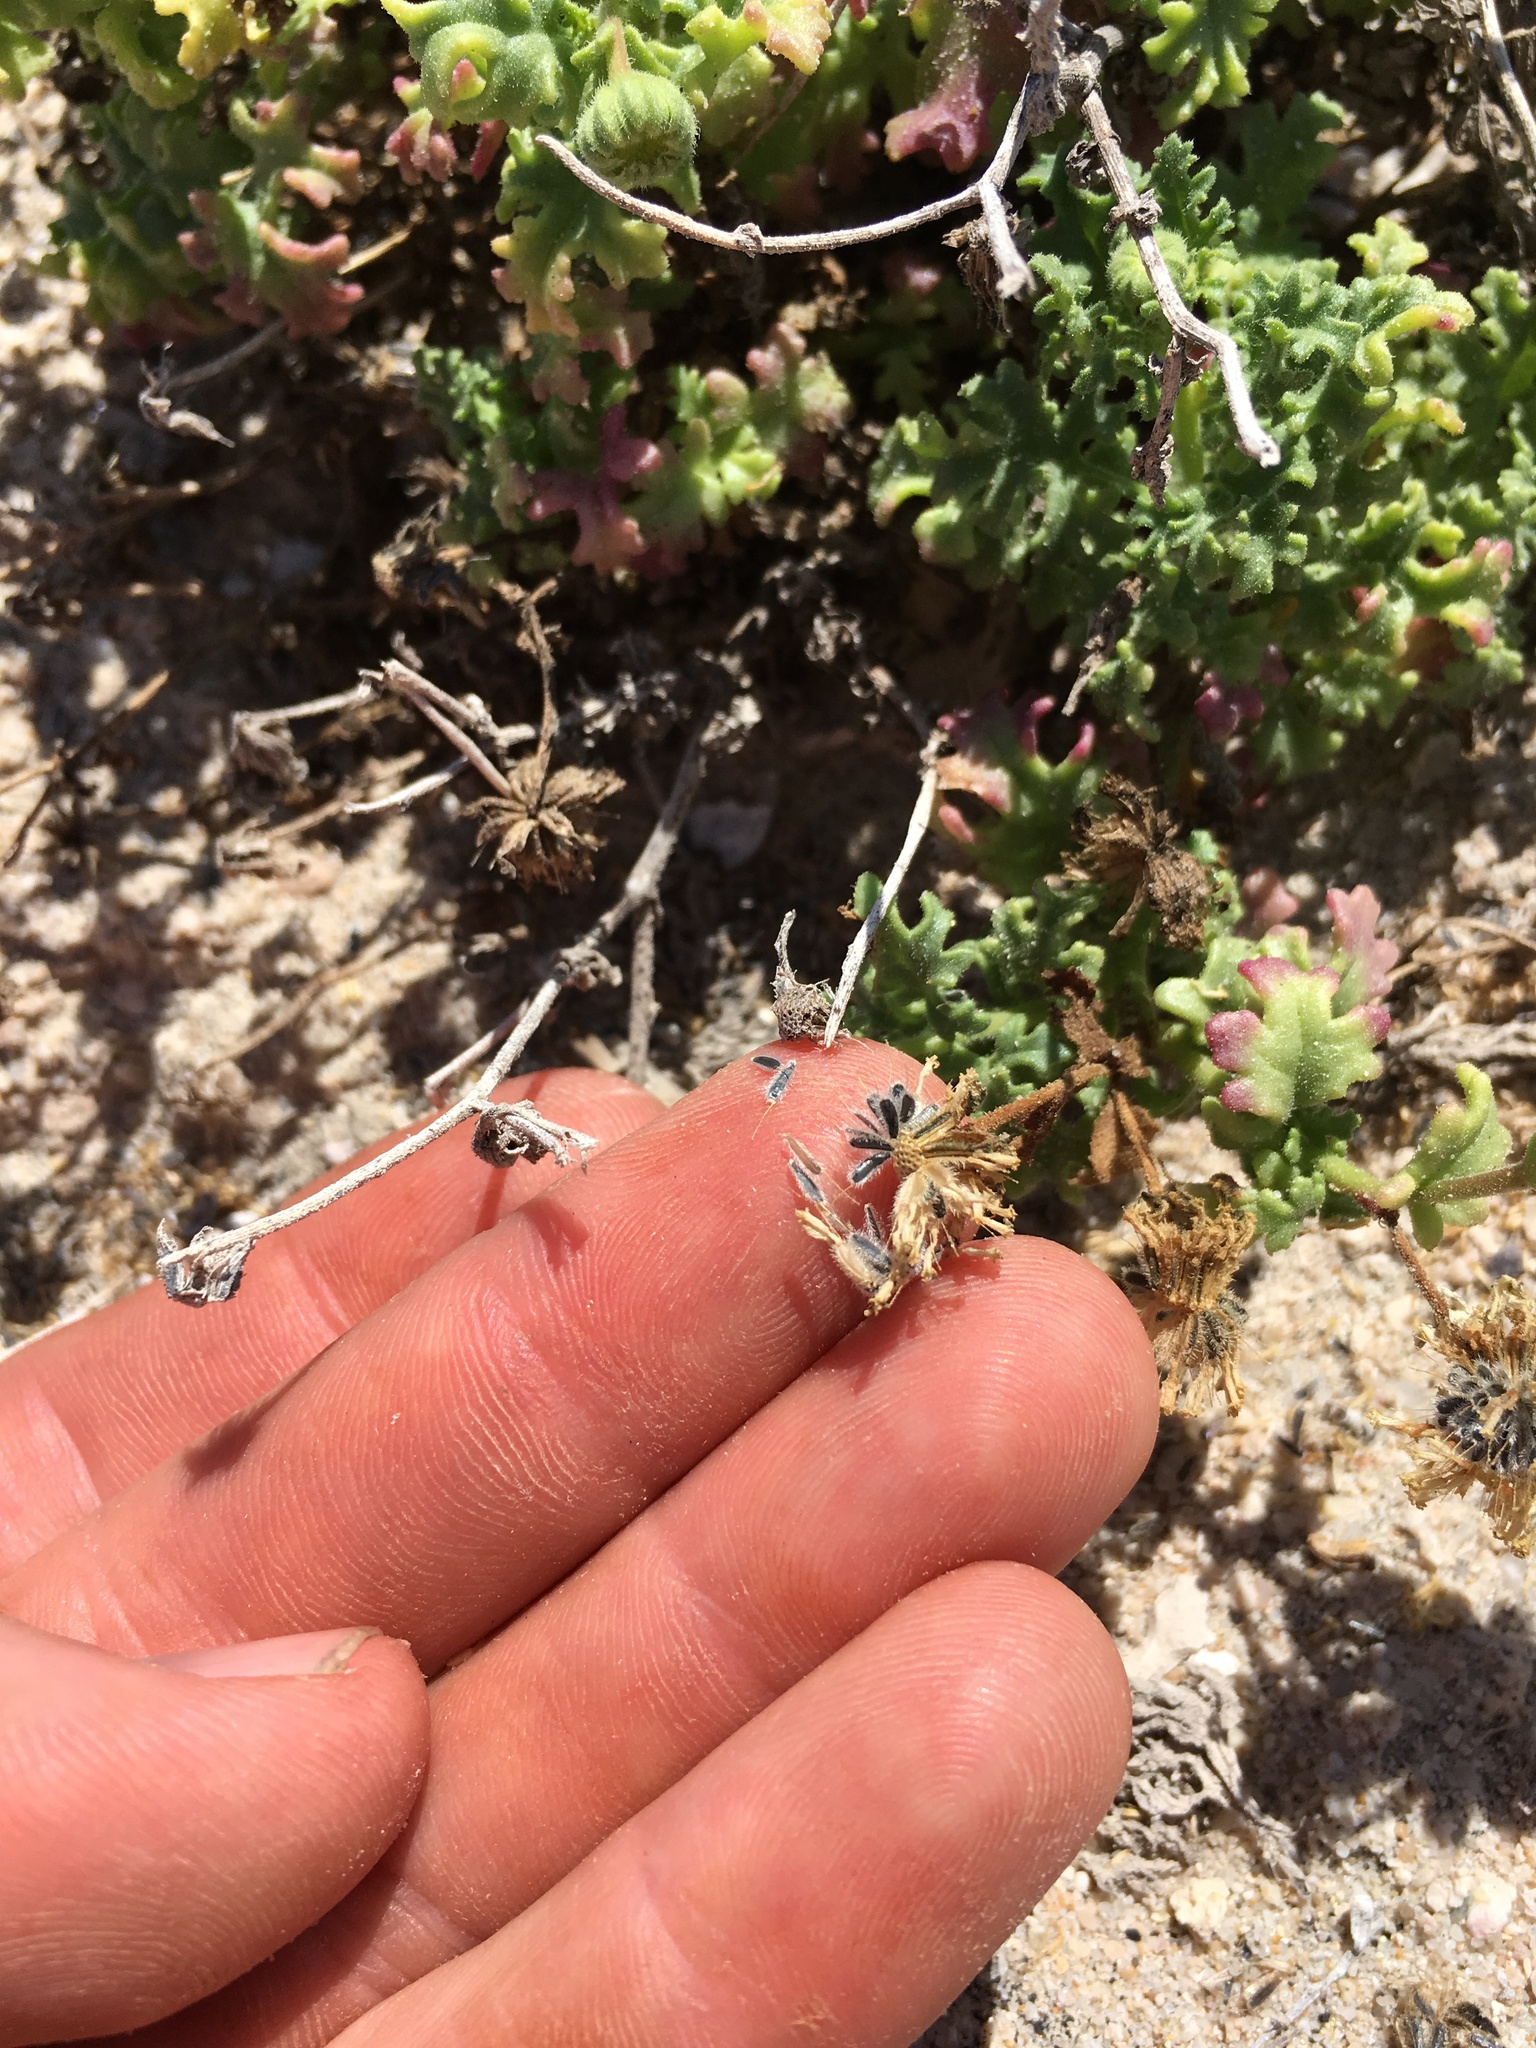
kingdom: Plantae
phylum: Tracheophyta
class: Magnoliopsida
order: Asterales
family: Asteraceae
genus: Perityle
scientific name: Perityle crassifolia
